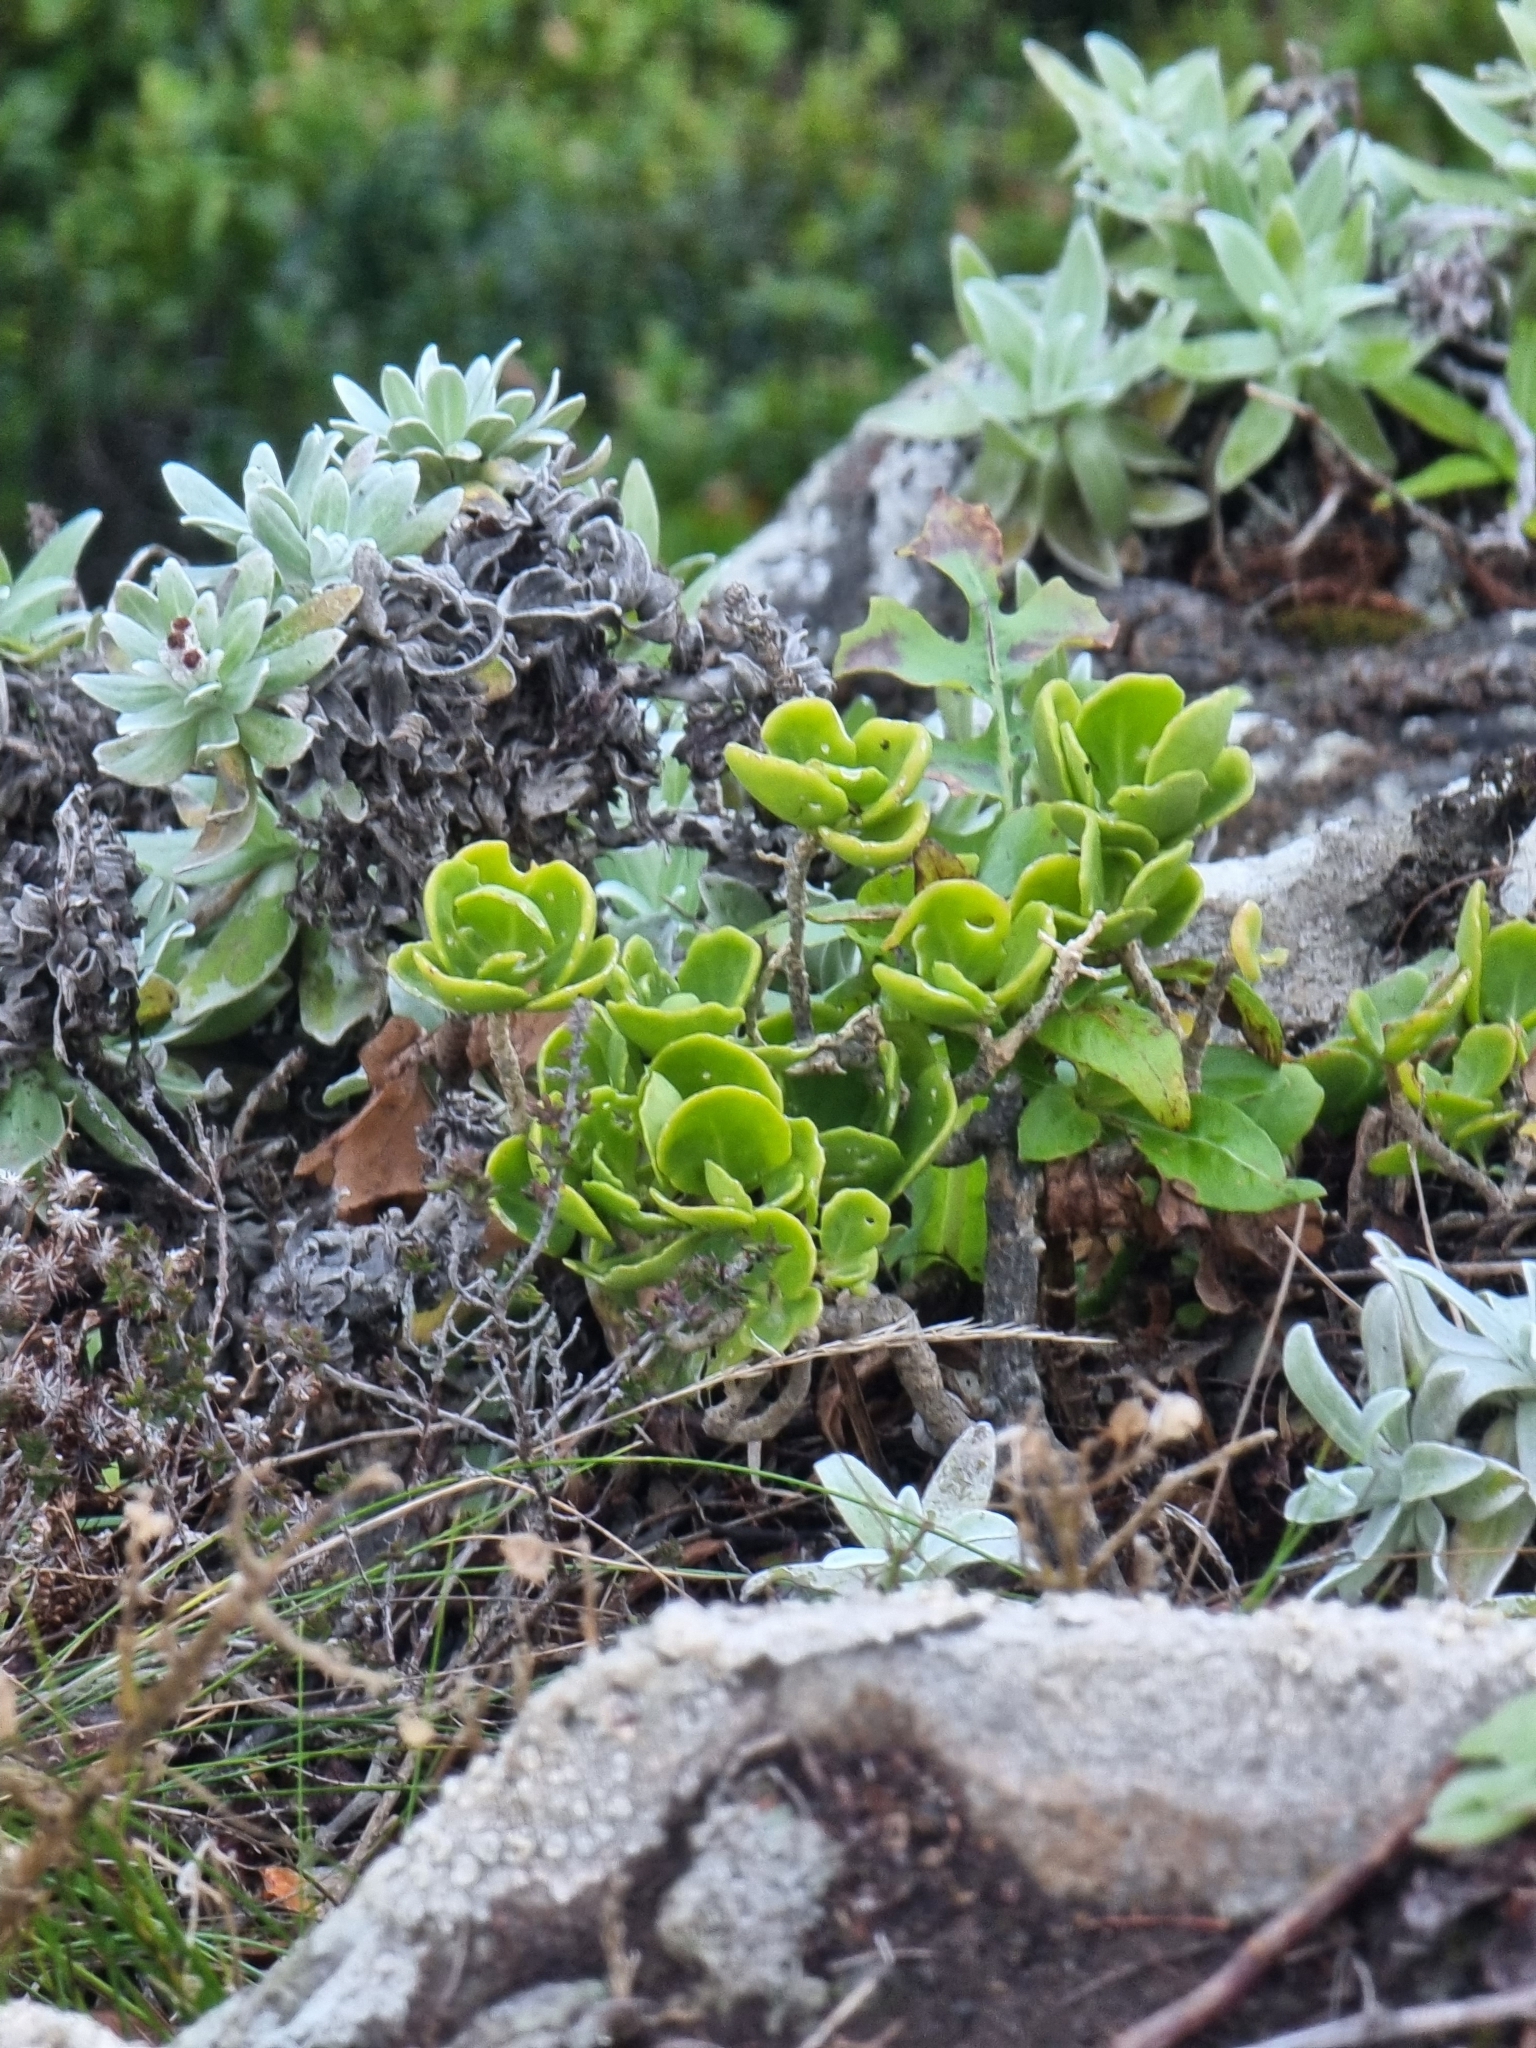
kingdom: Plantae
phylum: Tracheophyta
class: Magnoliopsida
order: Brassicales
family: Brassicaceae
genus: Sinapidendron
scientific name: Sinapidendron rupestre
